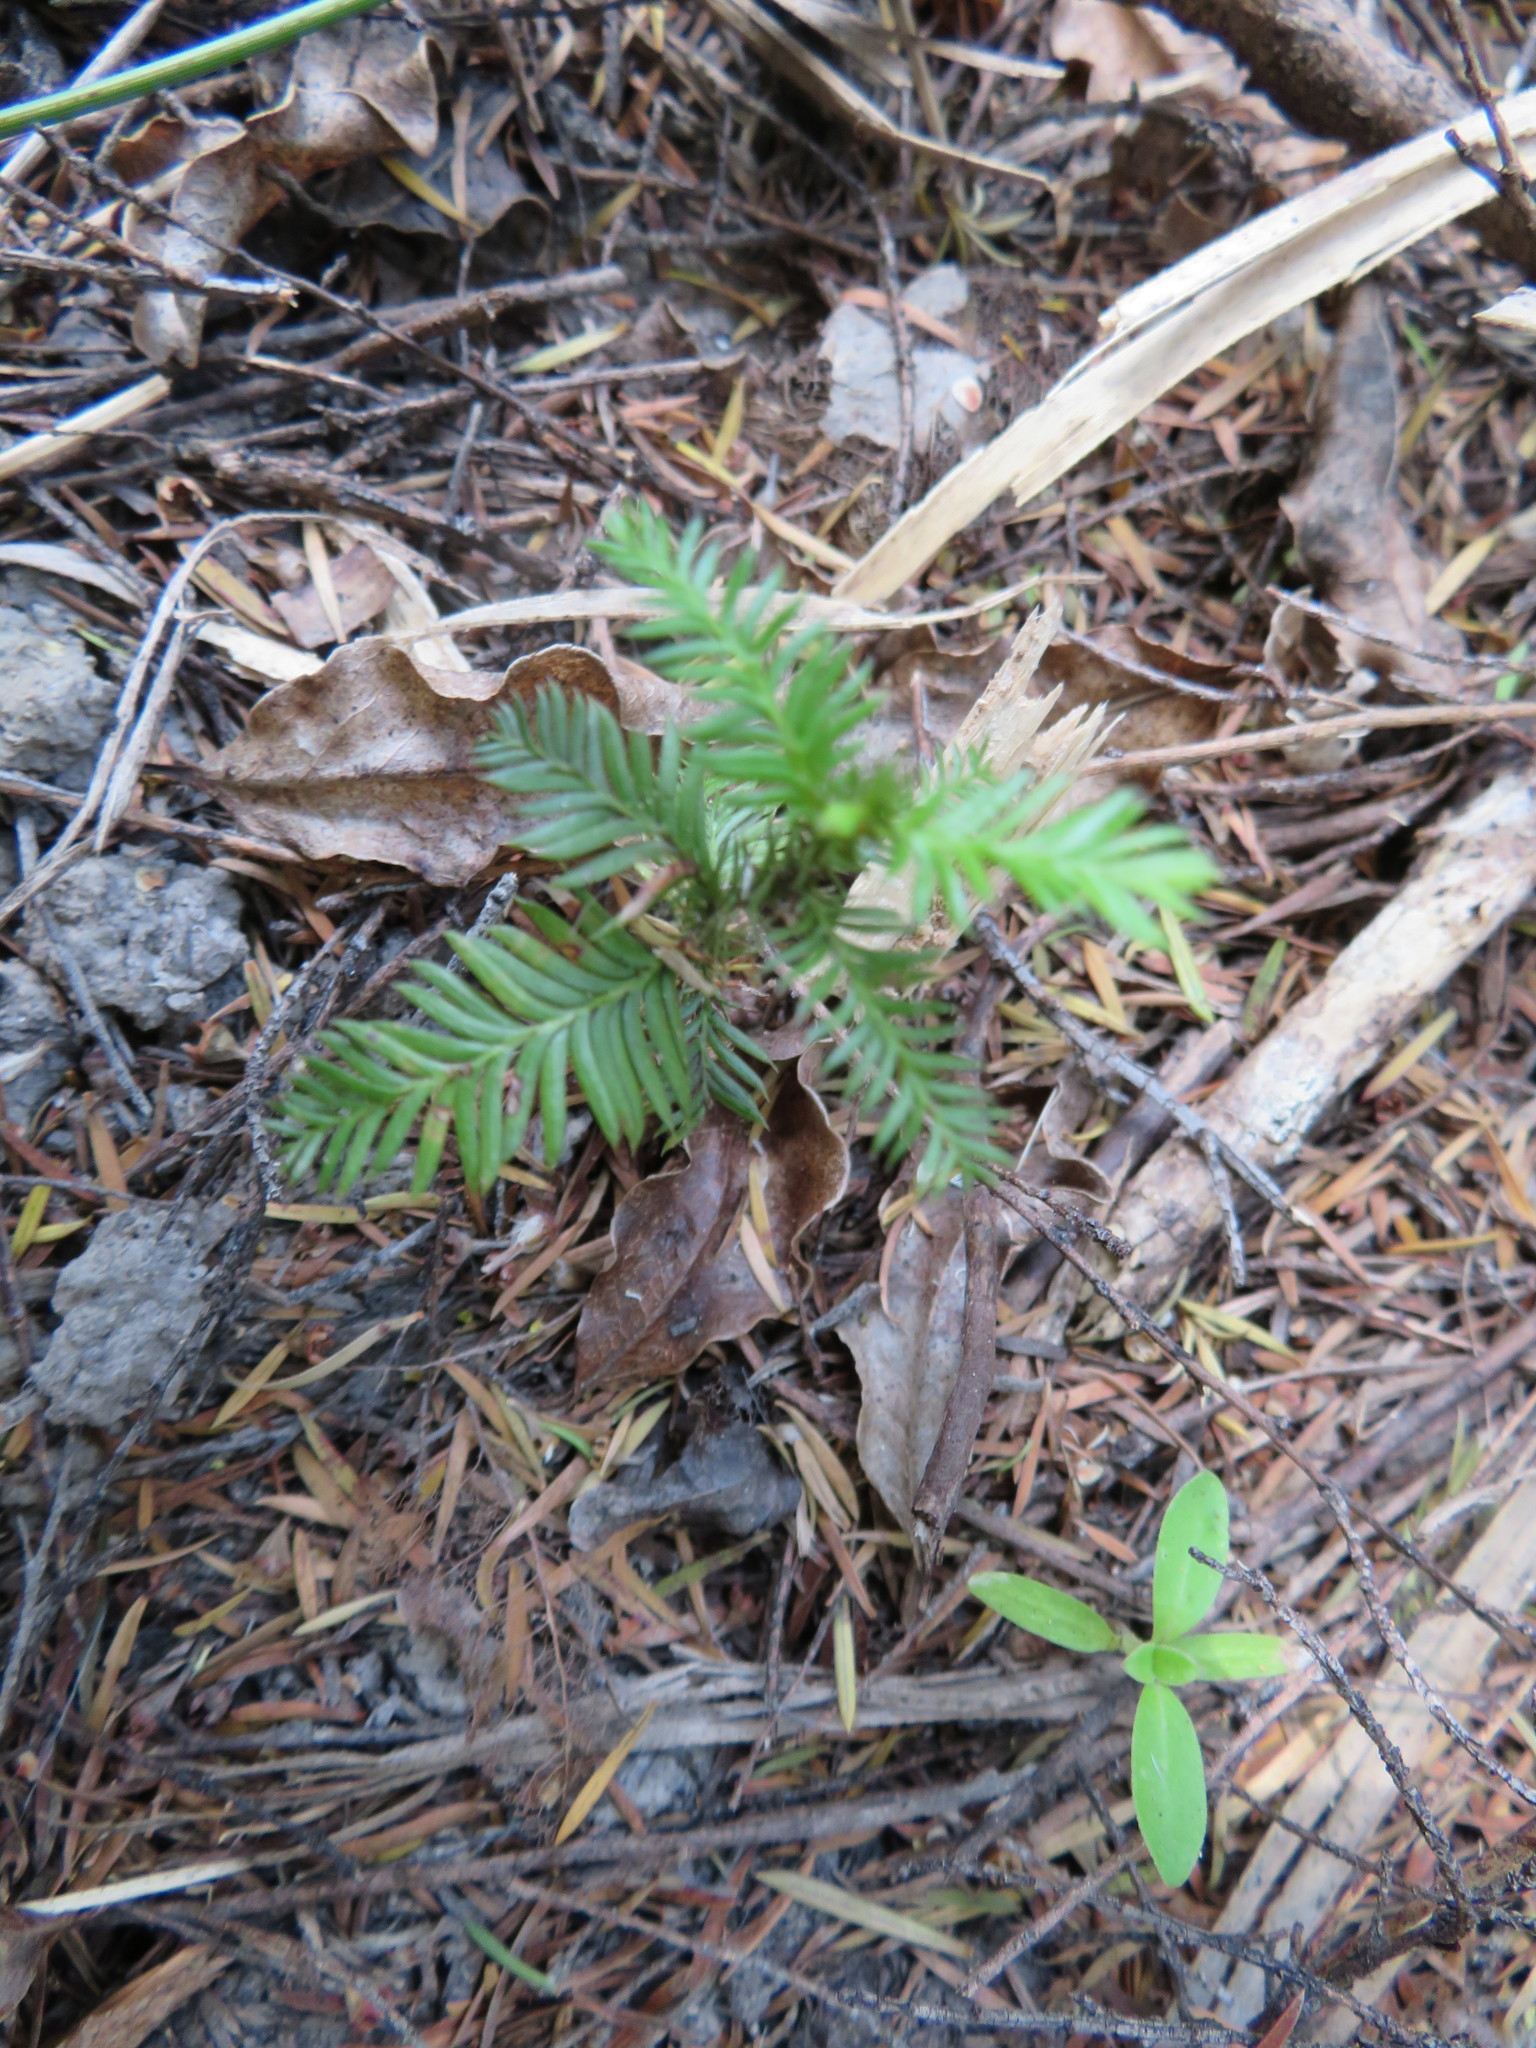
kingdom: Plantae
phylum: Tracheophyta
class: Pinopsida
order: Pinales
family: Podocarpaceae
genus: Dacrycarpus
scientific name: Dacrycarpus dacrydioides
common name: White pine
